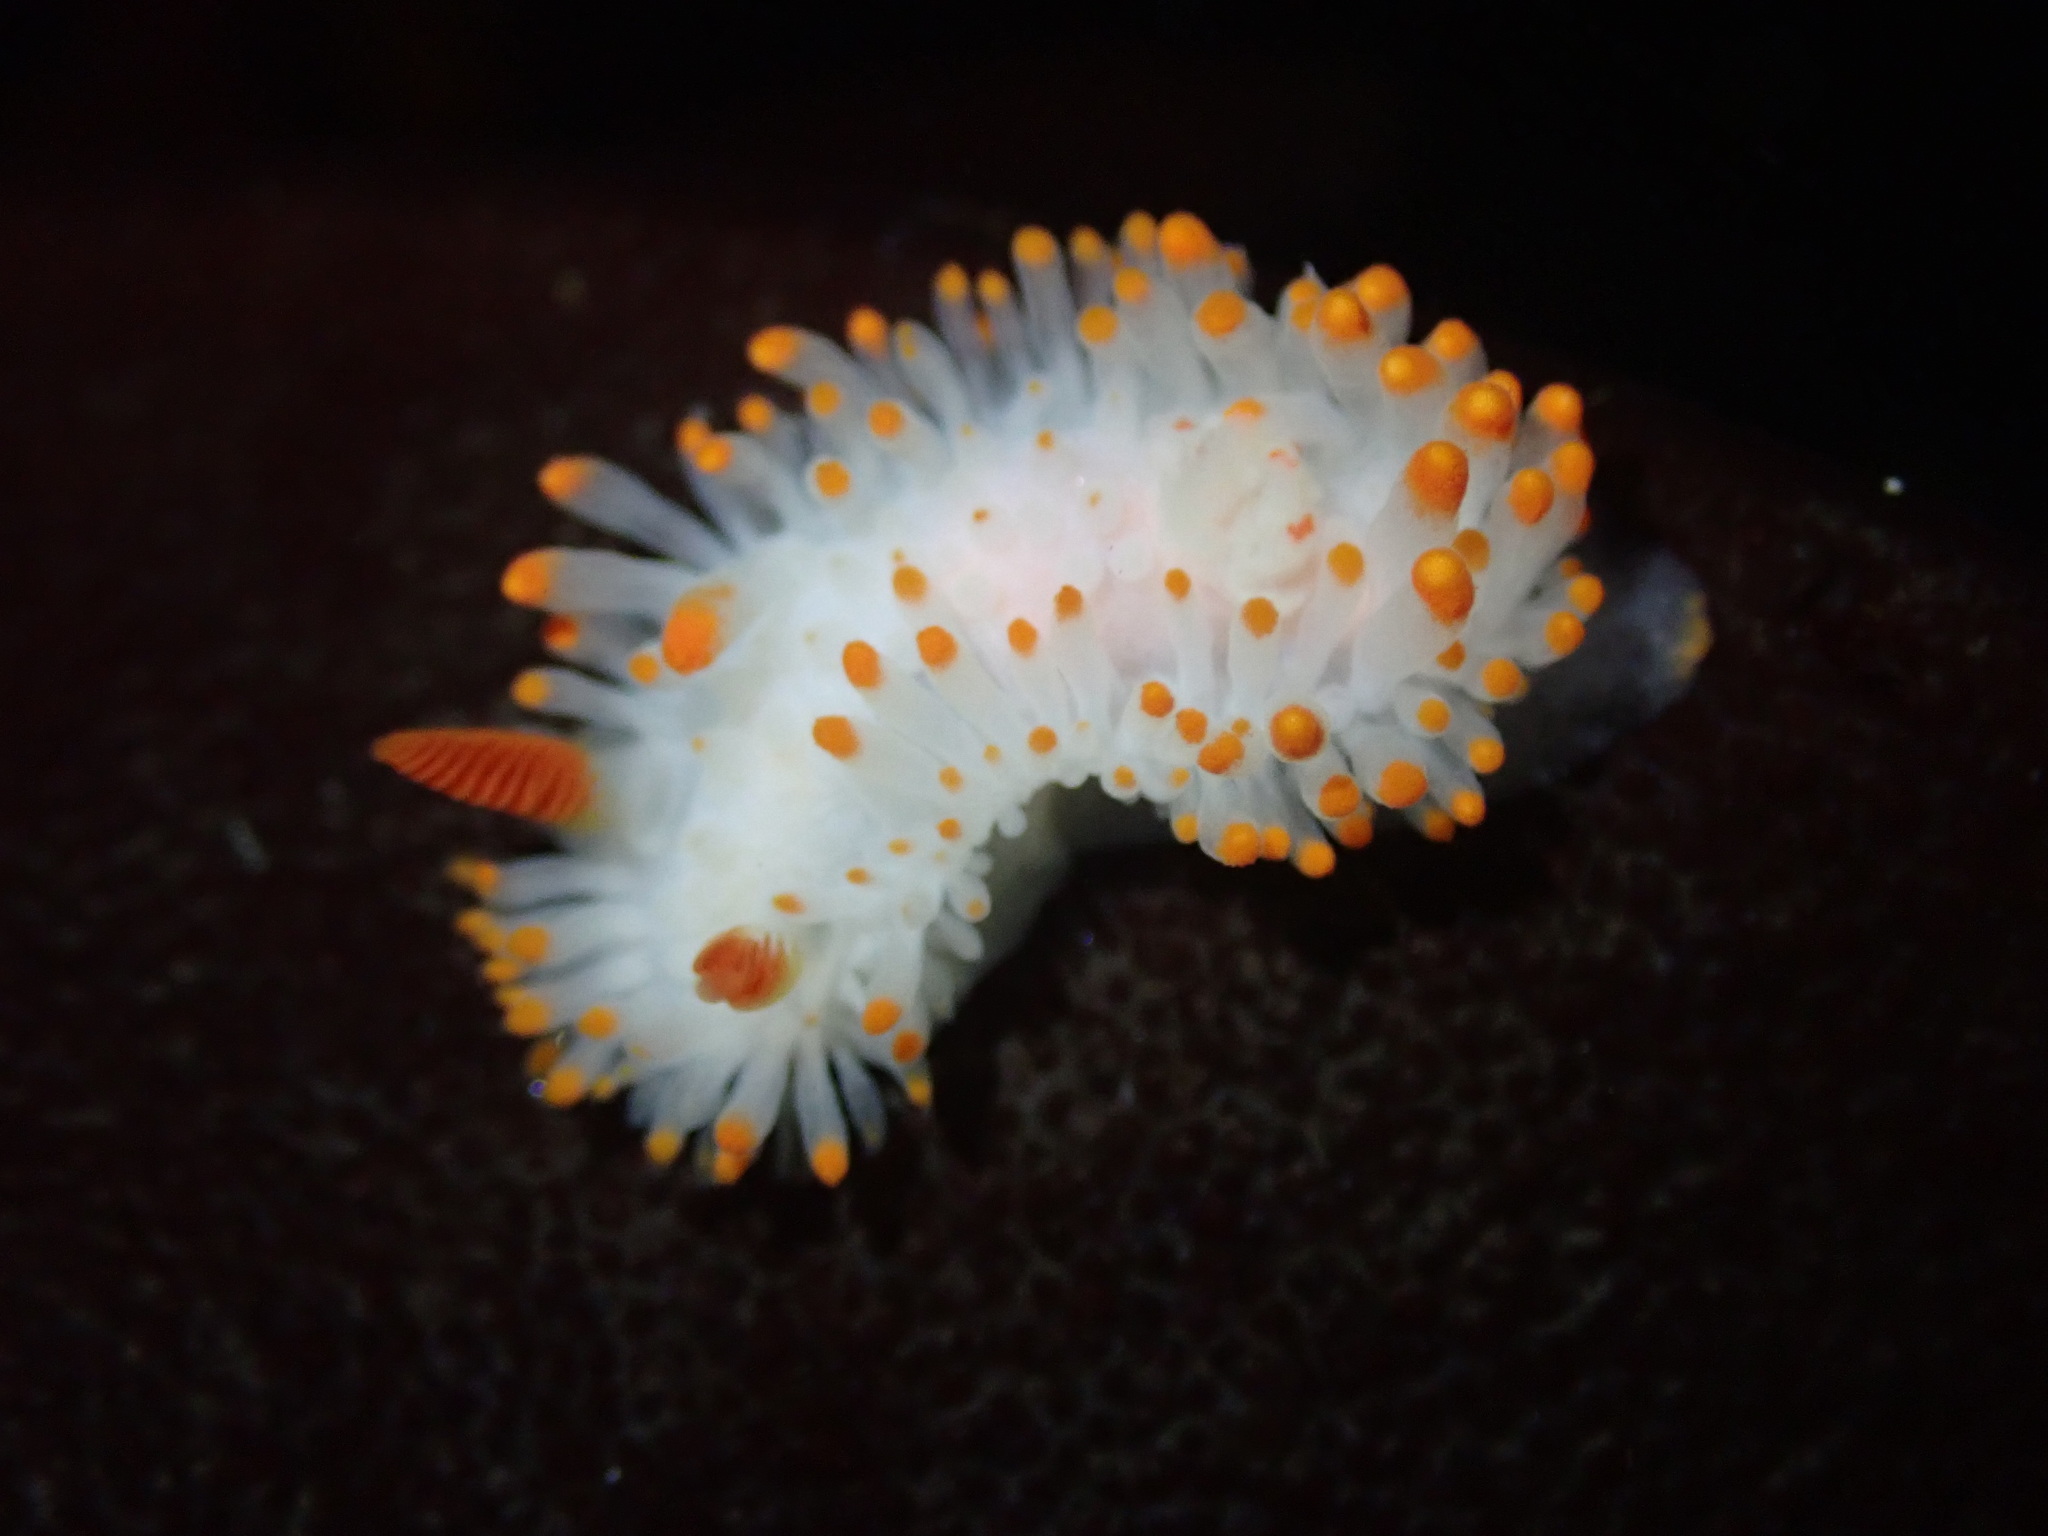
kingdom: Animalia
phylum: Mollusca
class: Gastropoda
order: Nudibranchia
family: Polyceridae
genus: Limacia
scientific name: Limacia cockerelli
